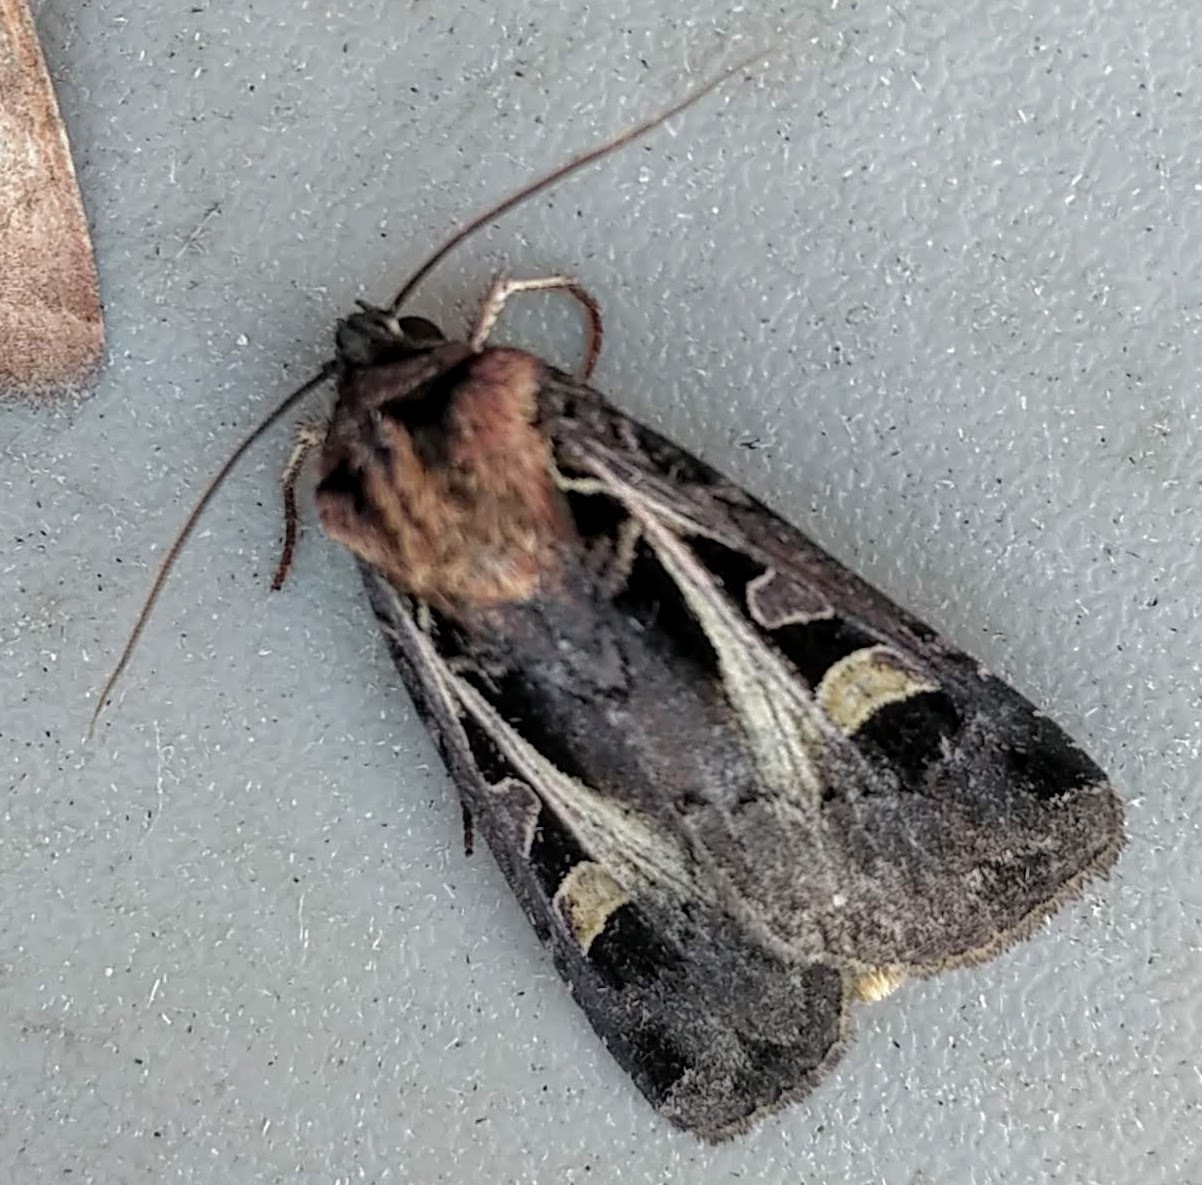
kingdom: Animalia
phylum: Arthropoda
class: Insecta
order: Lepidoptera
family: Noctuidae
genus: Feltia
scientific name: Feltia herilis
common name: Master's dart
